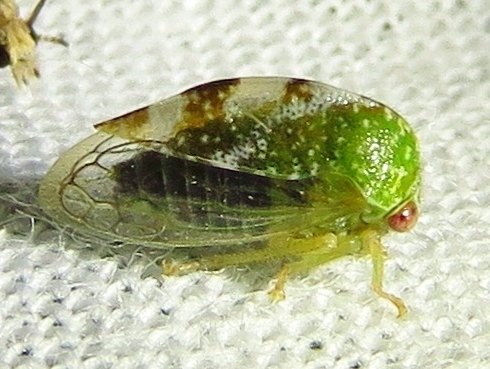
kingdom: Animalia
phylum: Arthropoda
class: Insecta
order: Hemiptera
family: Membracidae
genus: Cyrtolobus
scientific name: Cyrtolobus dixianus
